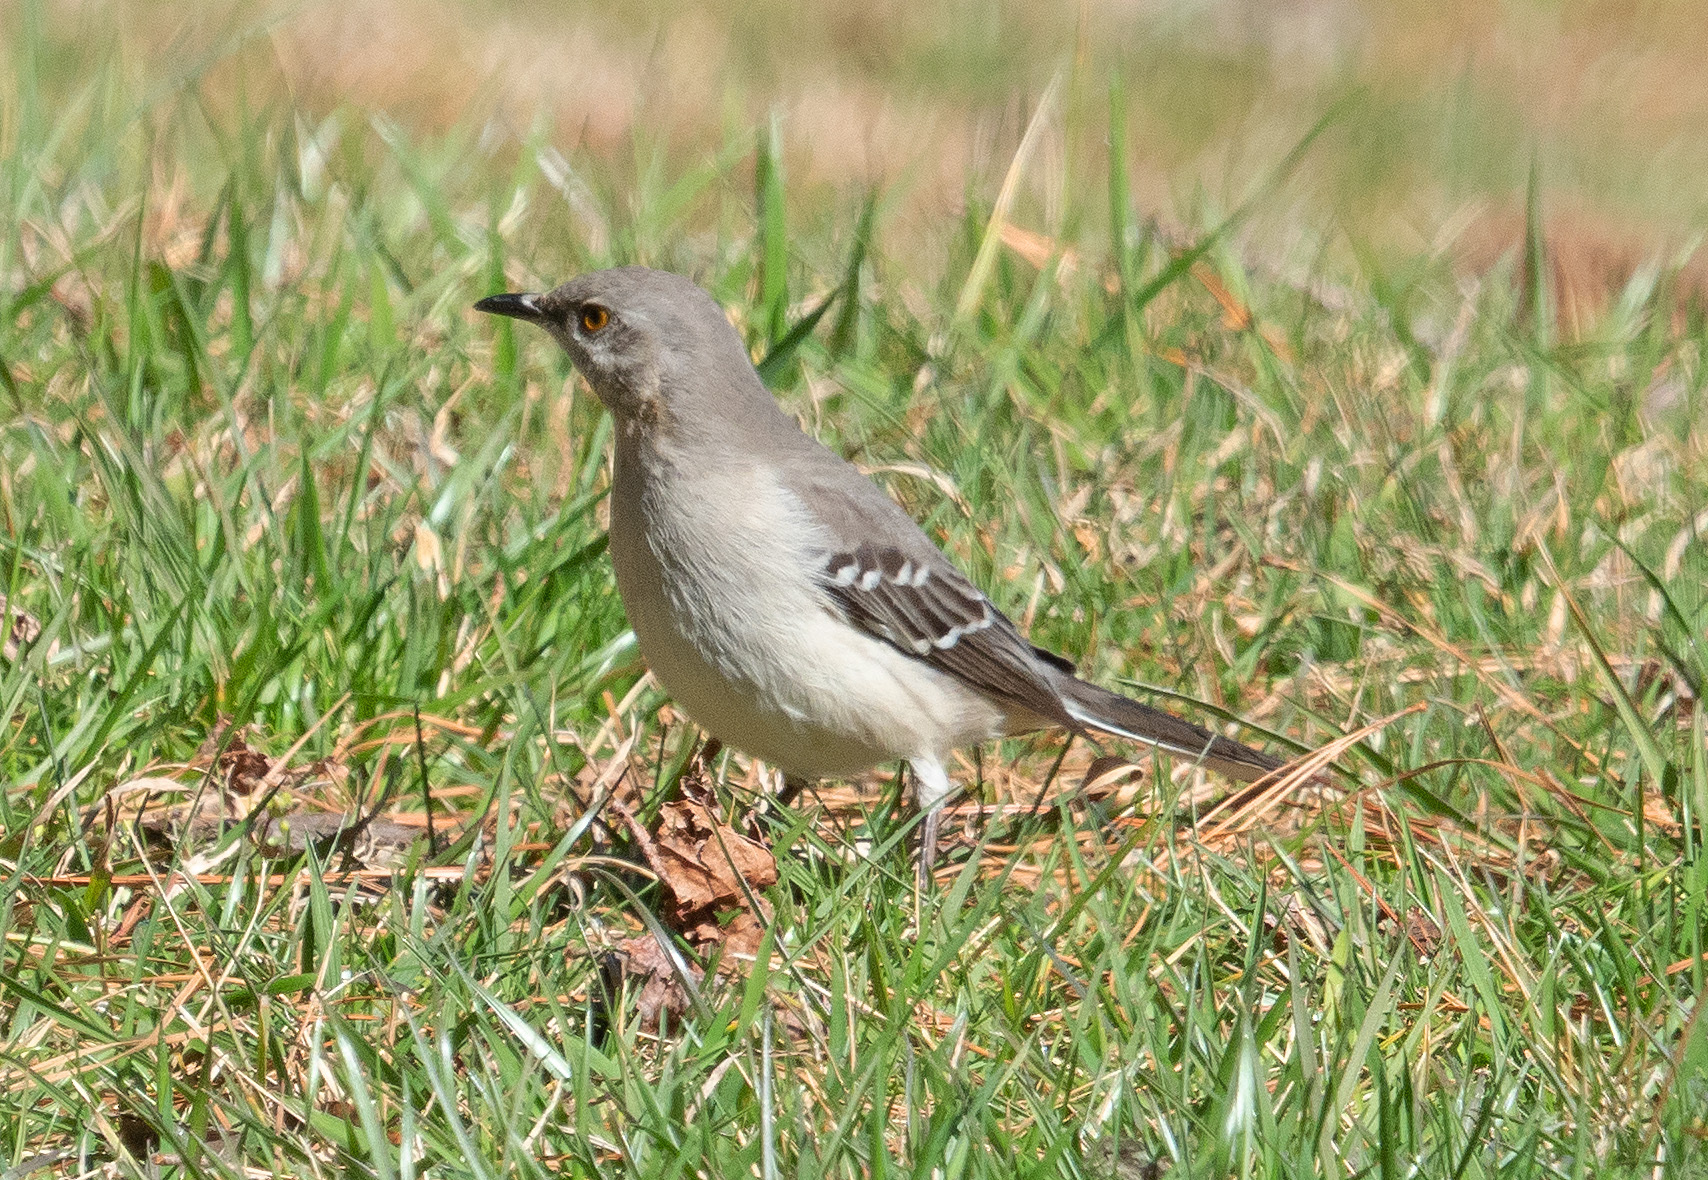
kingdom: Animalia
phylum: Chordata
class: Aves
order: Passeriformes
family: Mimidae
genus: Mimus
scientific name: Mimus polyglottos
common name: Northern mockingbird
